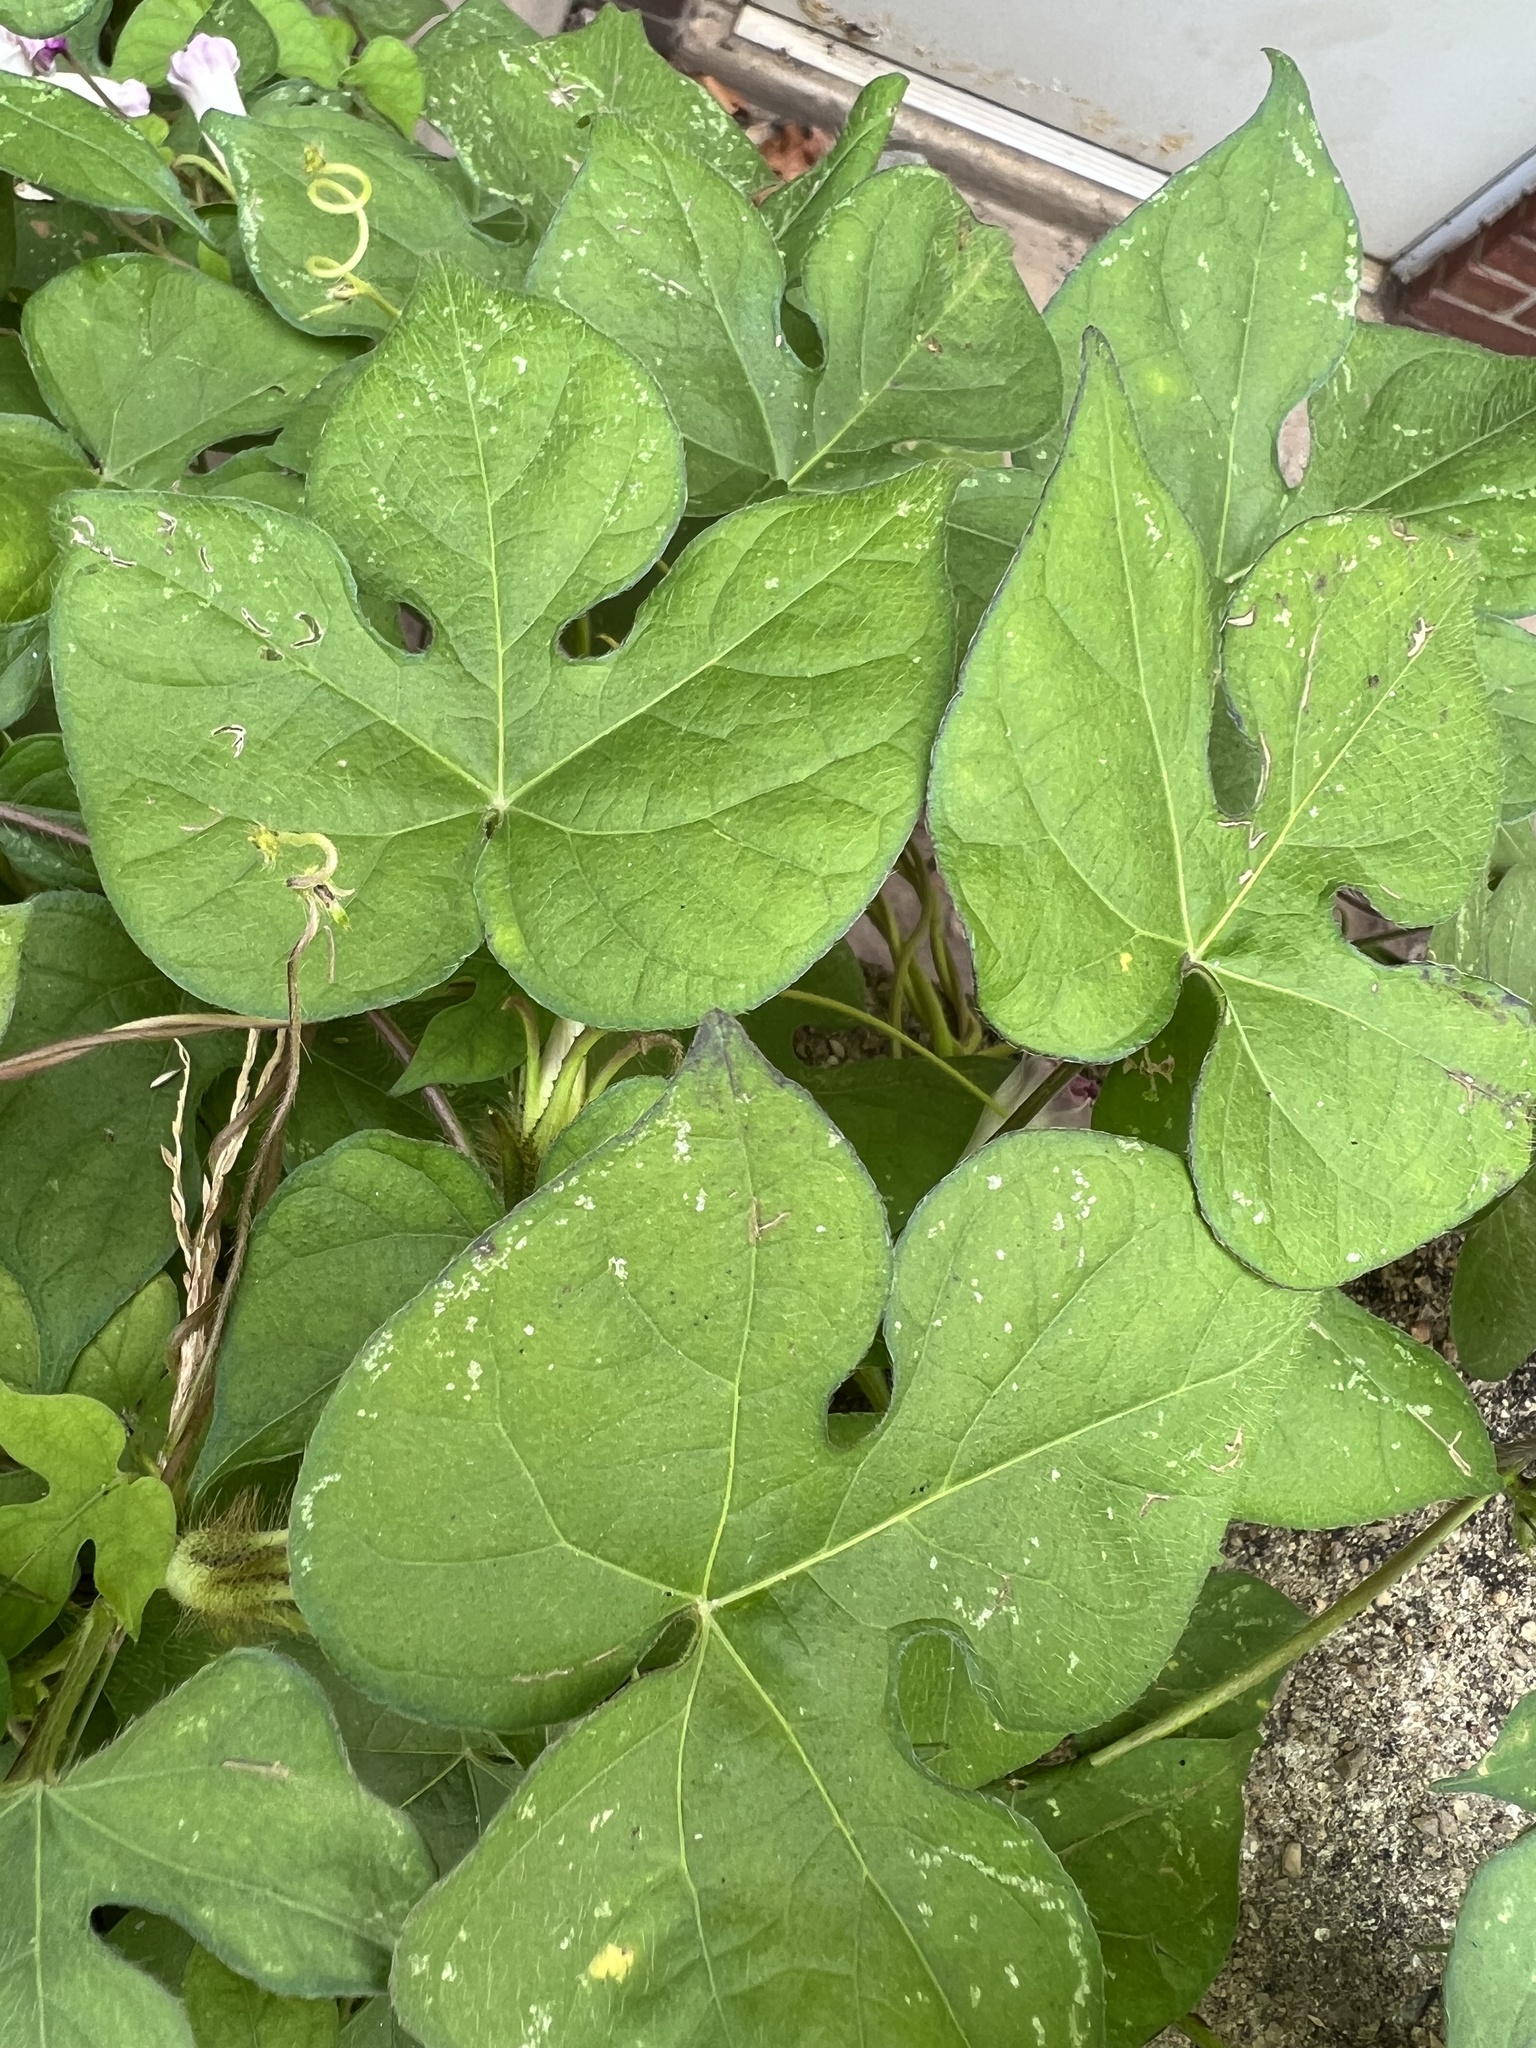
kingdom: Plantae
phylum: Tracheophyta
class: Magnoliopsida
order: Solanales
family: Convolvulaceae
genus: Ipomoea
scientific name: Ipomoea hederacea
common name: Ivy-leaved morning-glory
